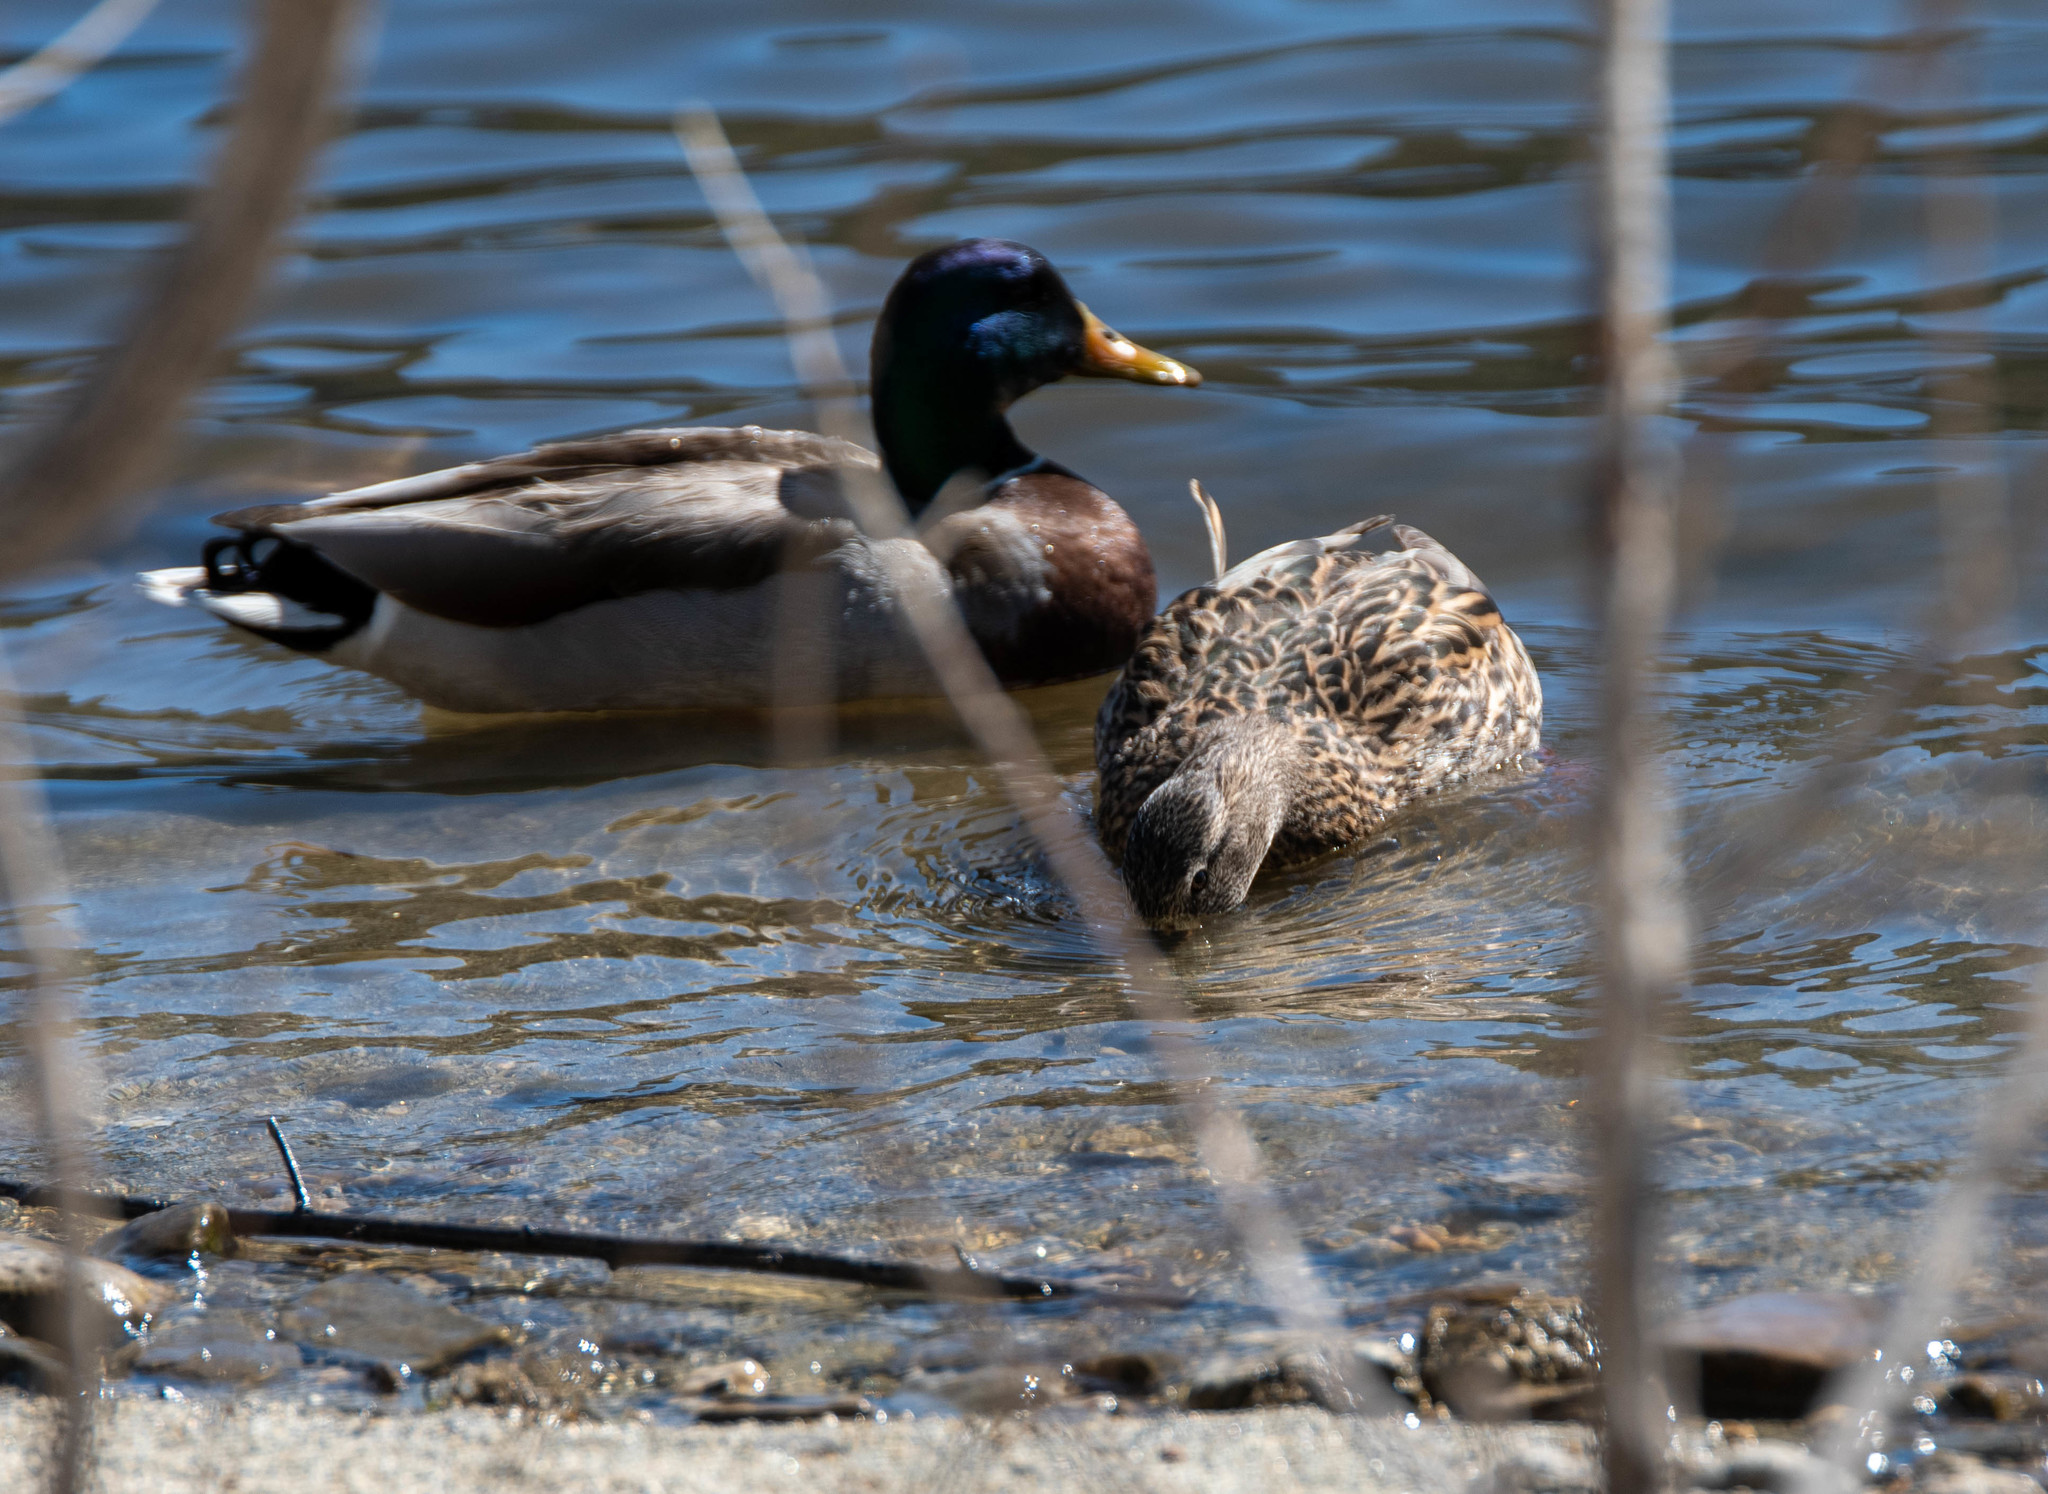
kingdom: Animalia
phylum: Chordata
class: Aves
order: Anseriformes
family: Anatidae
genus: Anas
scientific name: Anas platyrhynchos
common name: Mallard
